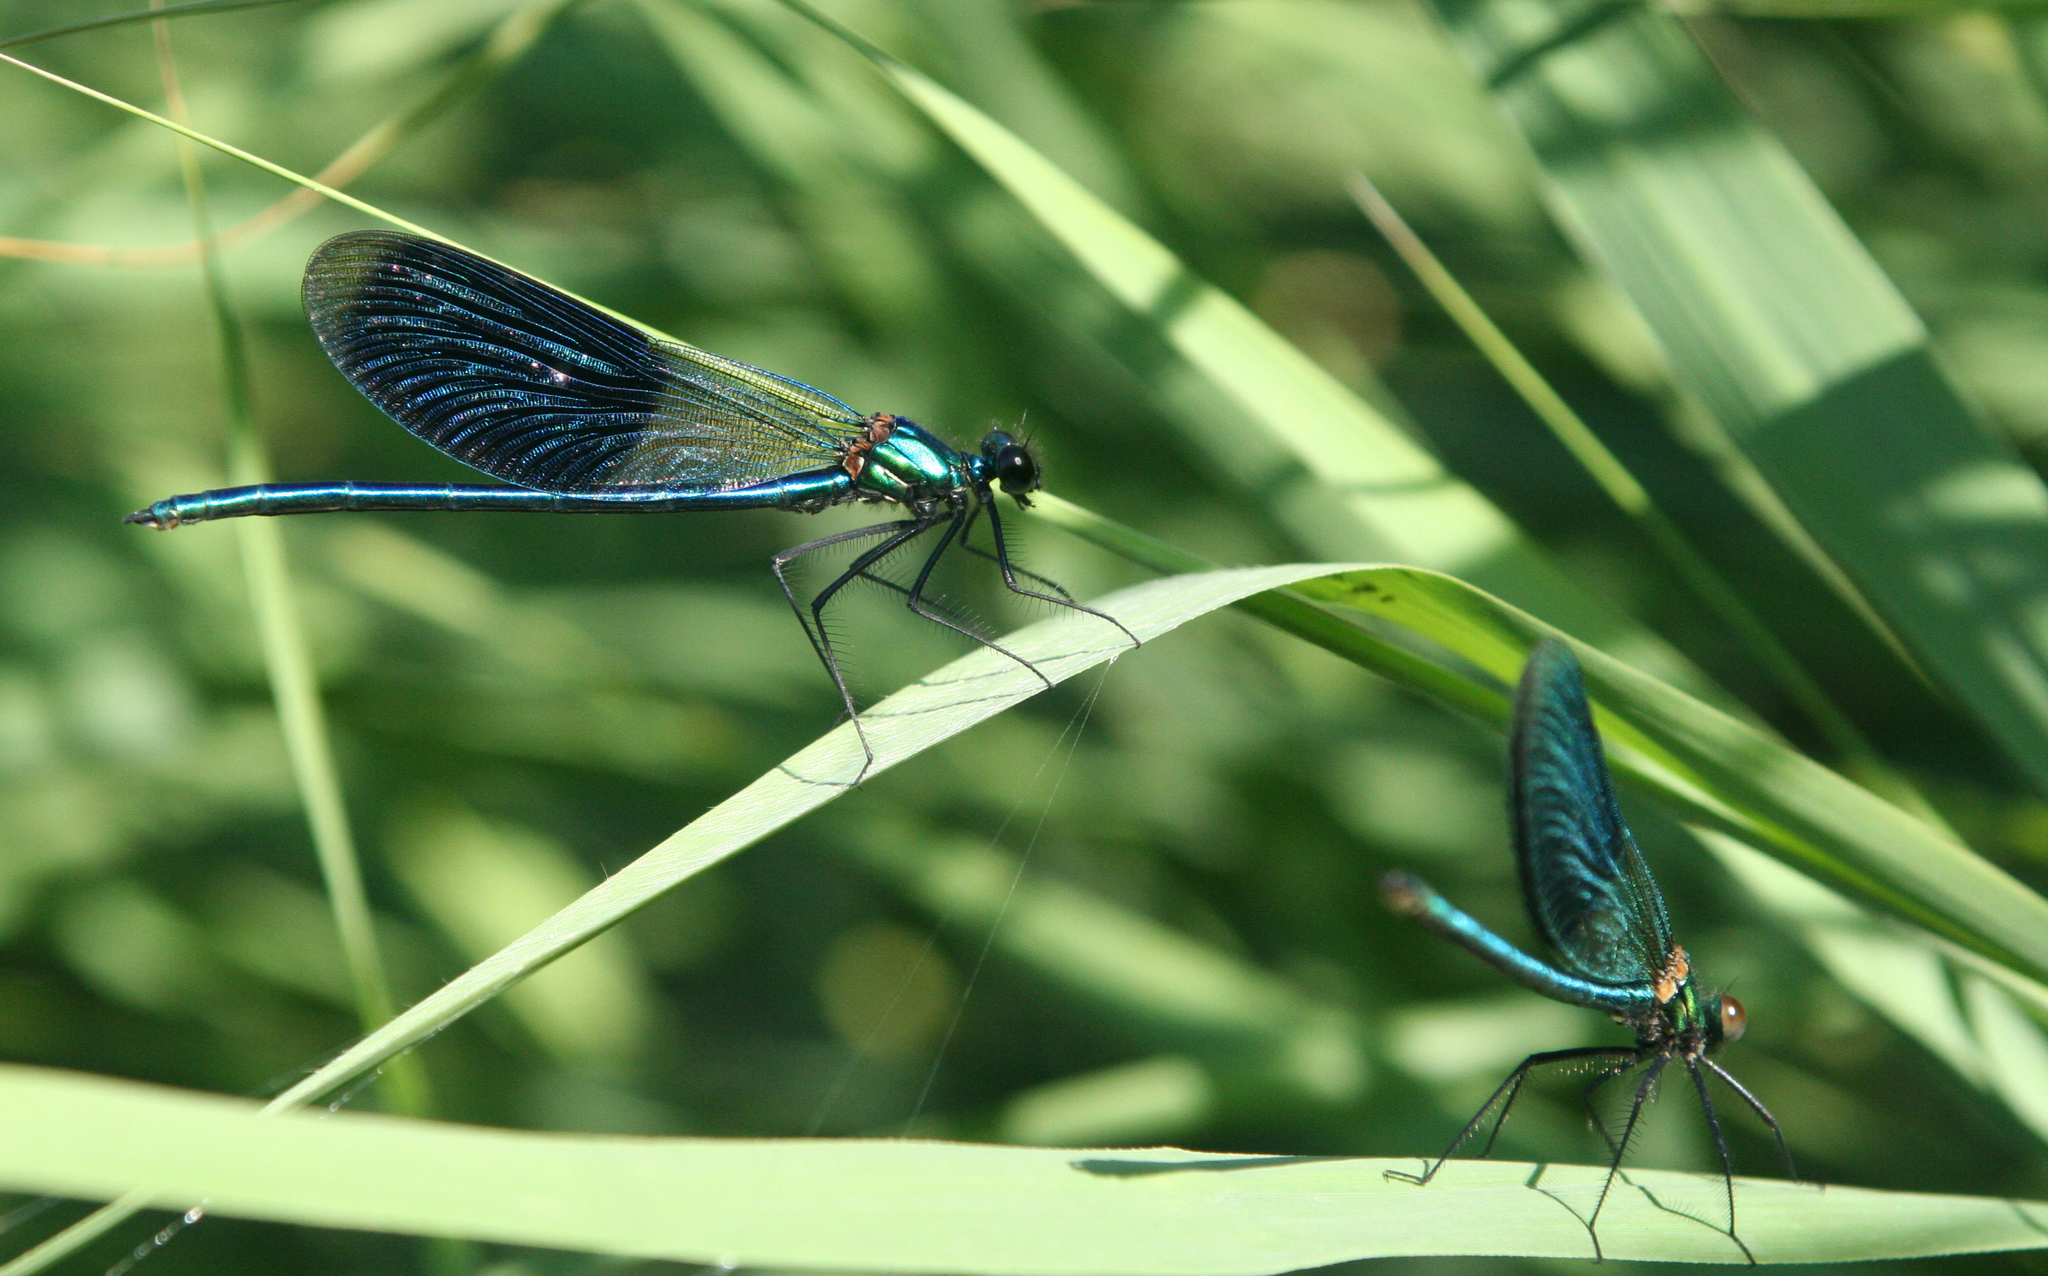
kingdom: Animalia
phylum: Arthropoda
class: Insecta
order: Odonata
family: Calopterygidae
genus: Calopteryx
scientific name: Calopteryx splendens
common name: Banded demoiselle
